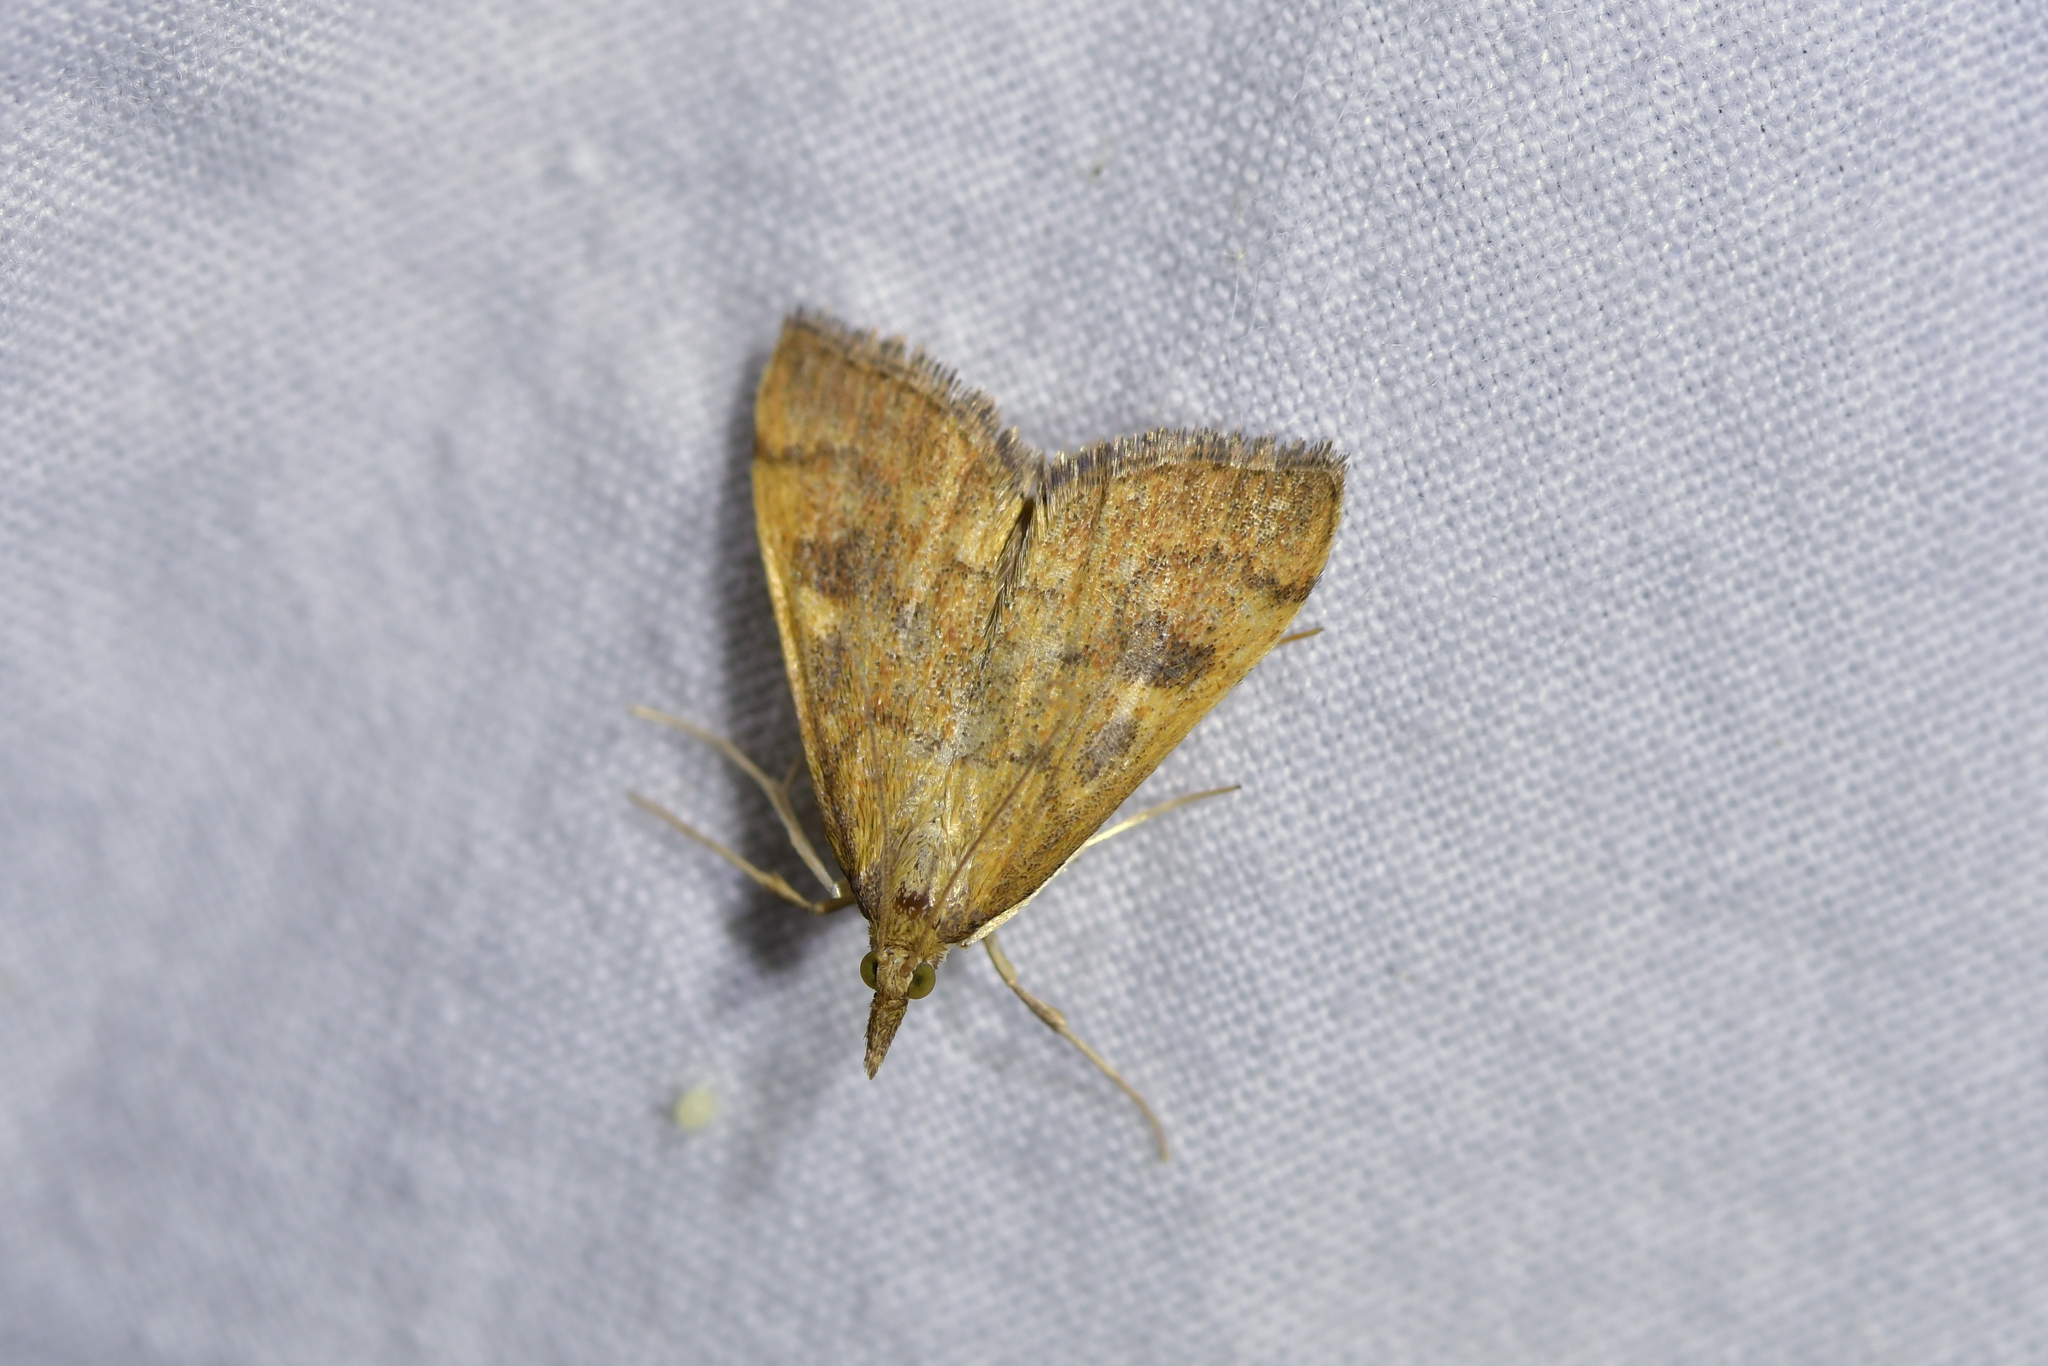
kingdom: Animalia
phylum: Arthropoda
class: Insecta
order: Lepidoptera
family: Crambidae
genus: Udea
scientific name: Udea Mnesictena flavidalis
